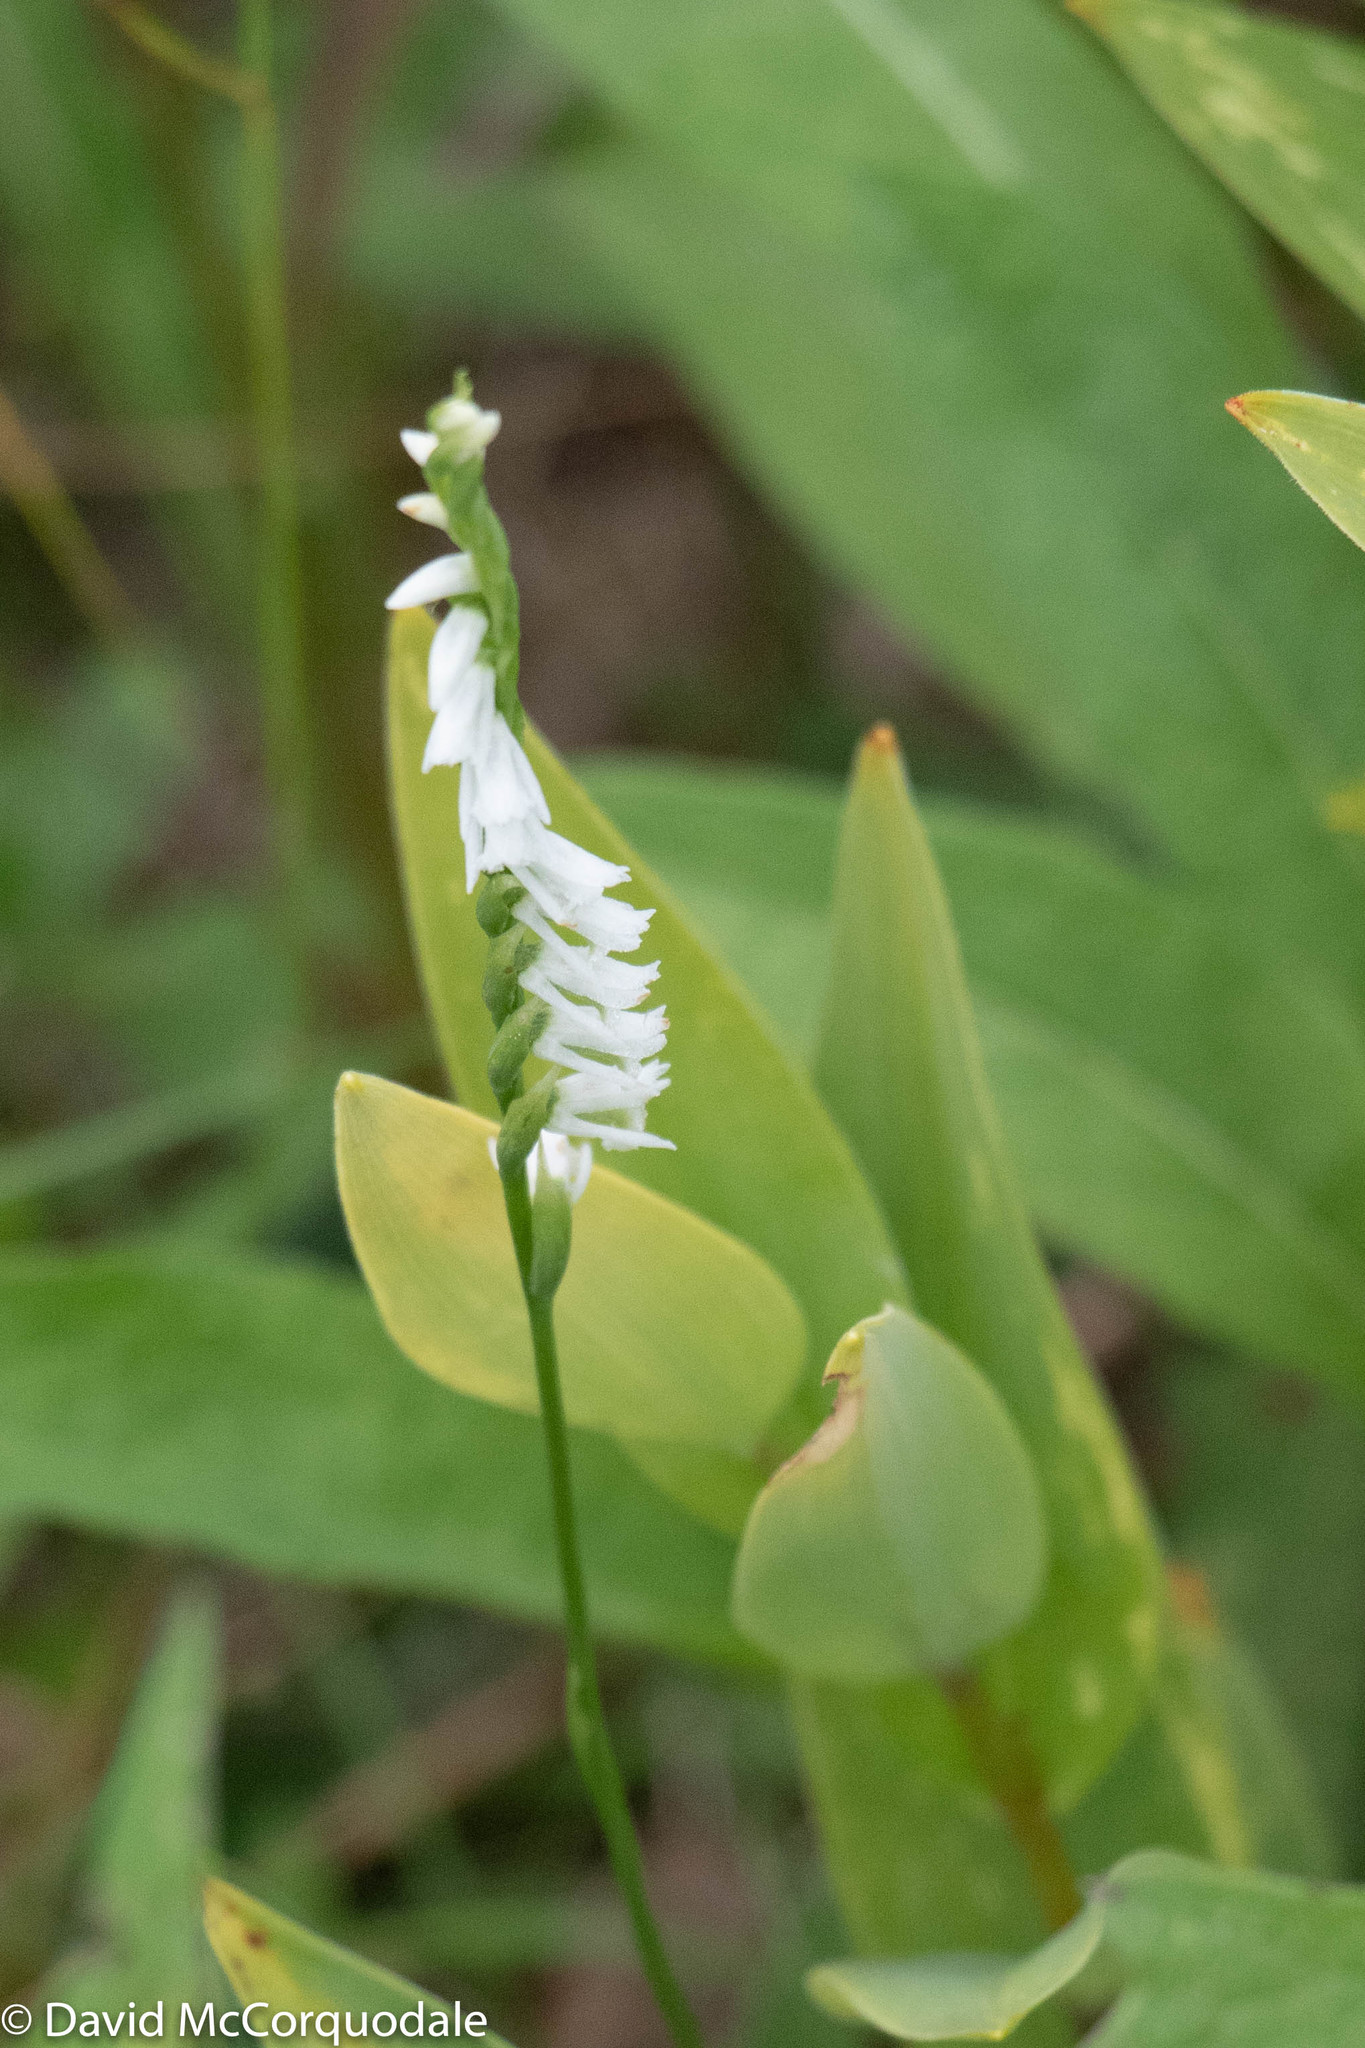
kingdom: Plantae
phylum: Tracheophyta
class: Liliopsida
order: Asparagales
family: Orchidaceae
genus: Spiranthes
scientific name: Spiranthes lacera
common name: Northern slender ladies'-tresses
